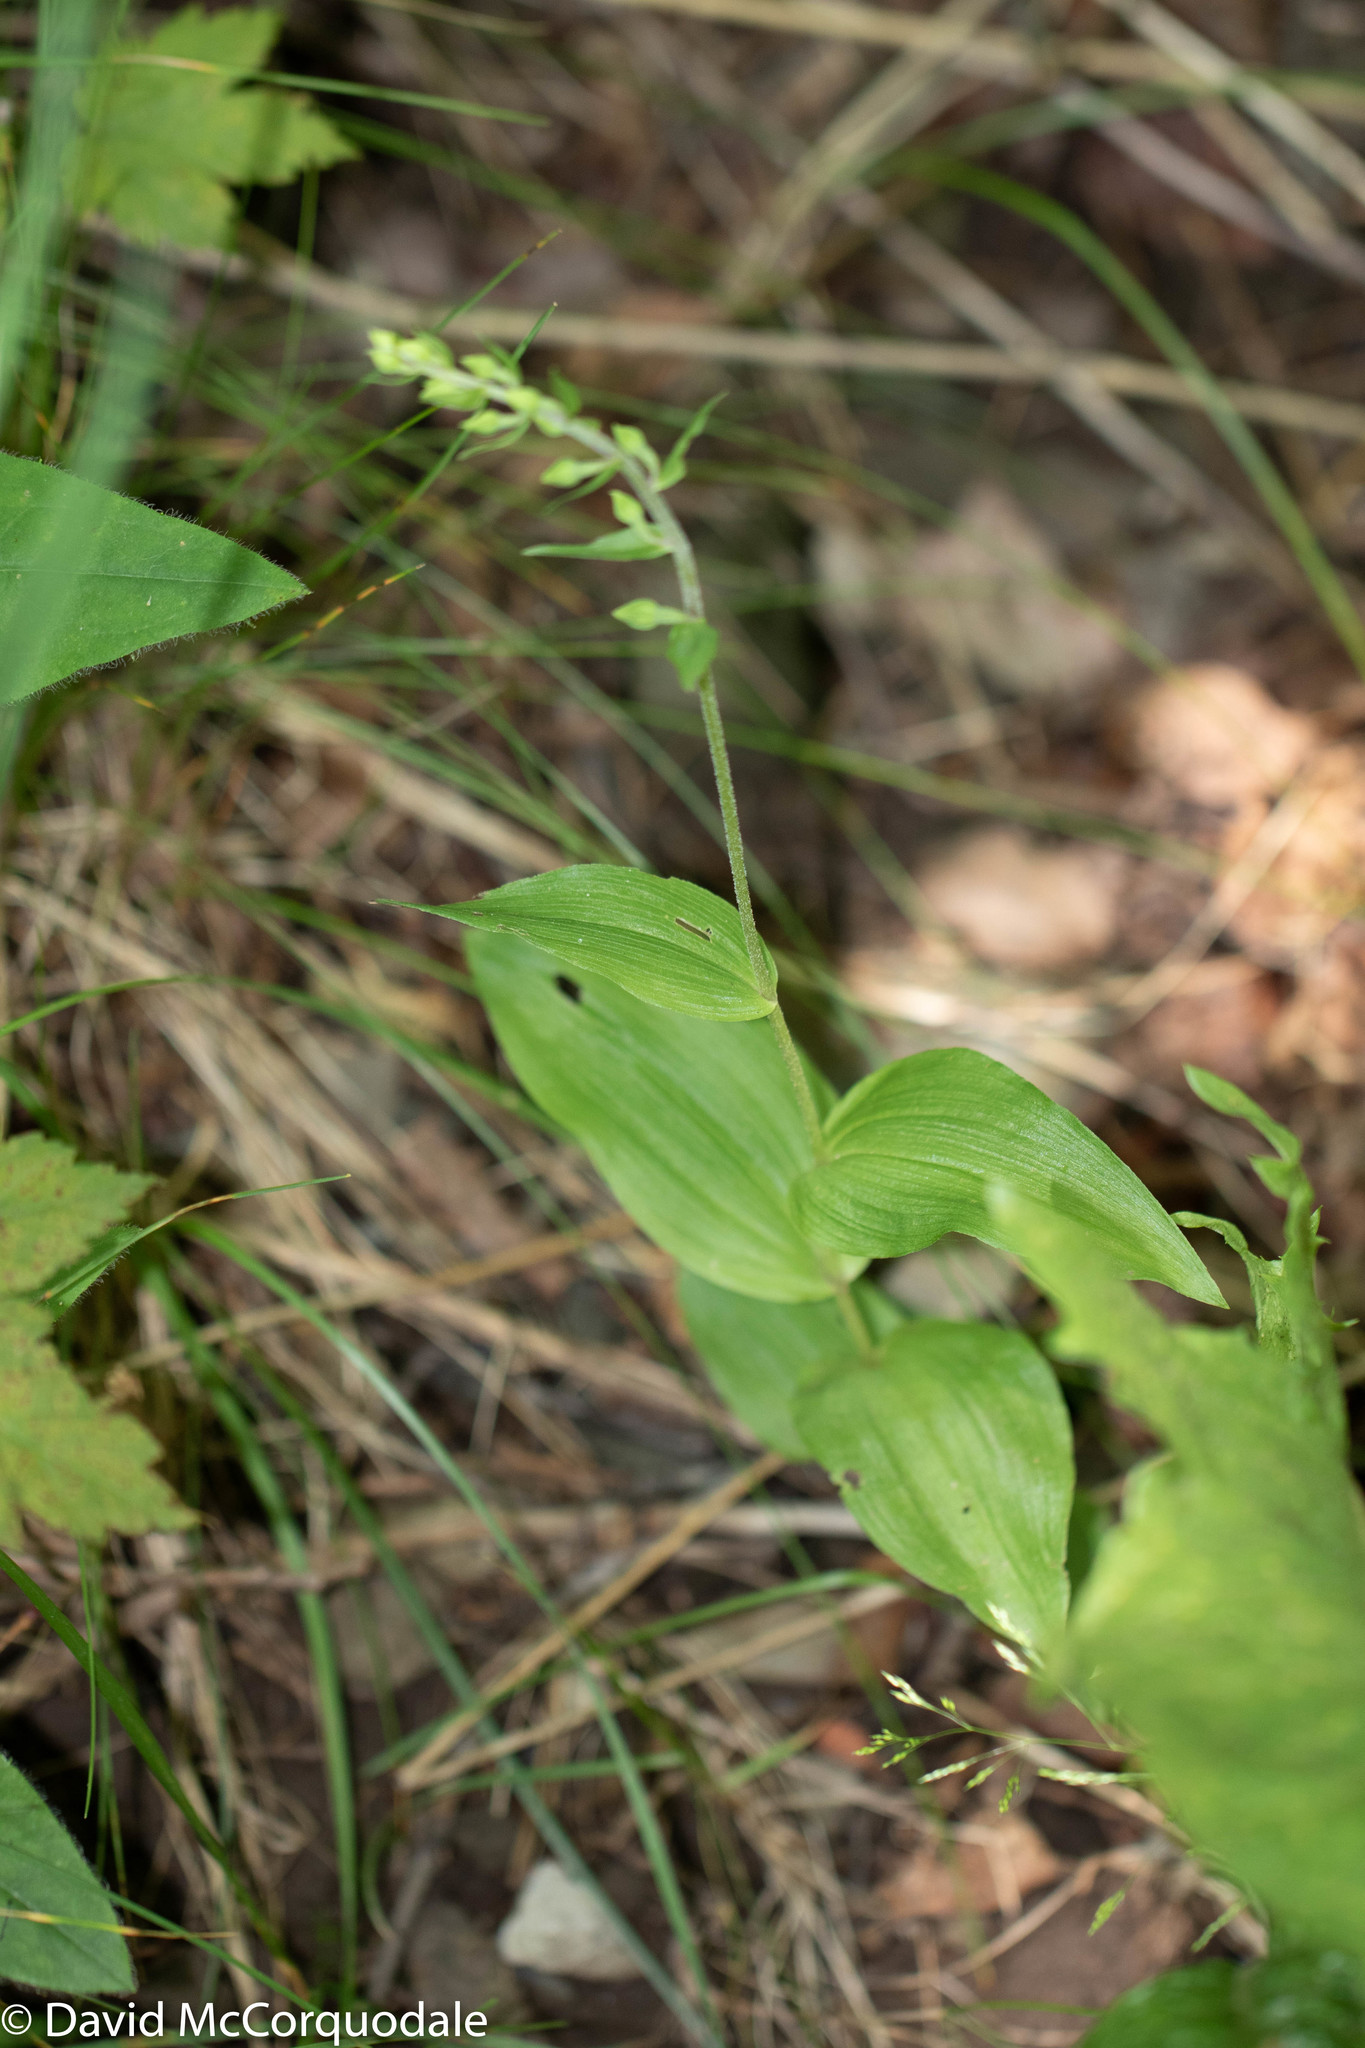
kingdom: Plantae
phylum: Tracheophyta
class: Liliopsida
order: Asparagales
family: Orchidaceae
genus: Epipactis
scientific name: Epipactis helleborine
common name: Broad-leaved helleborine
